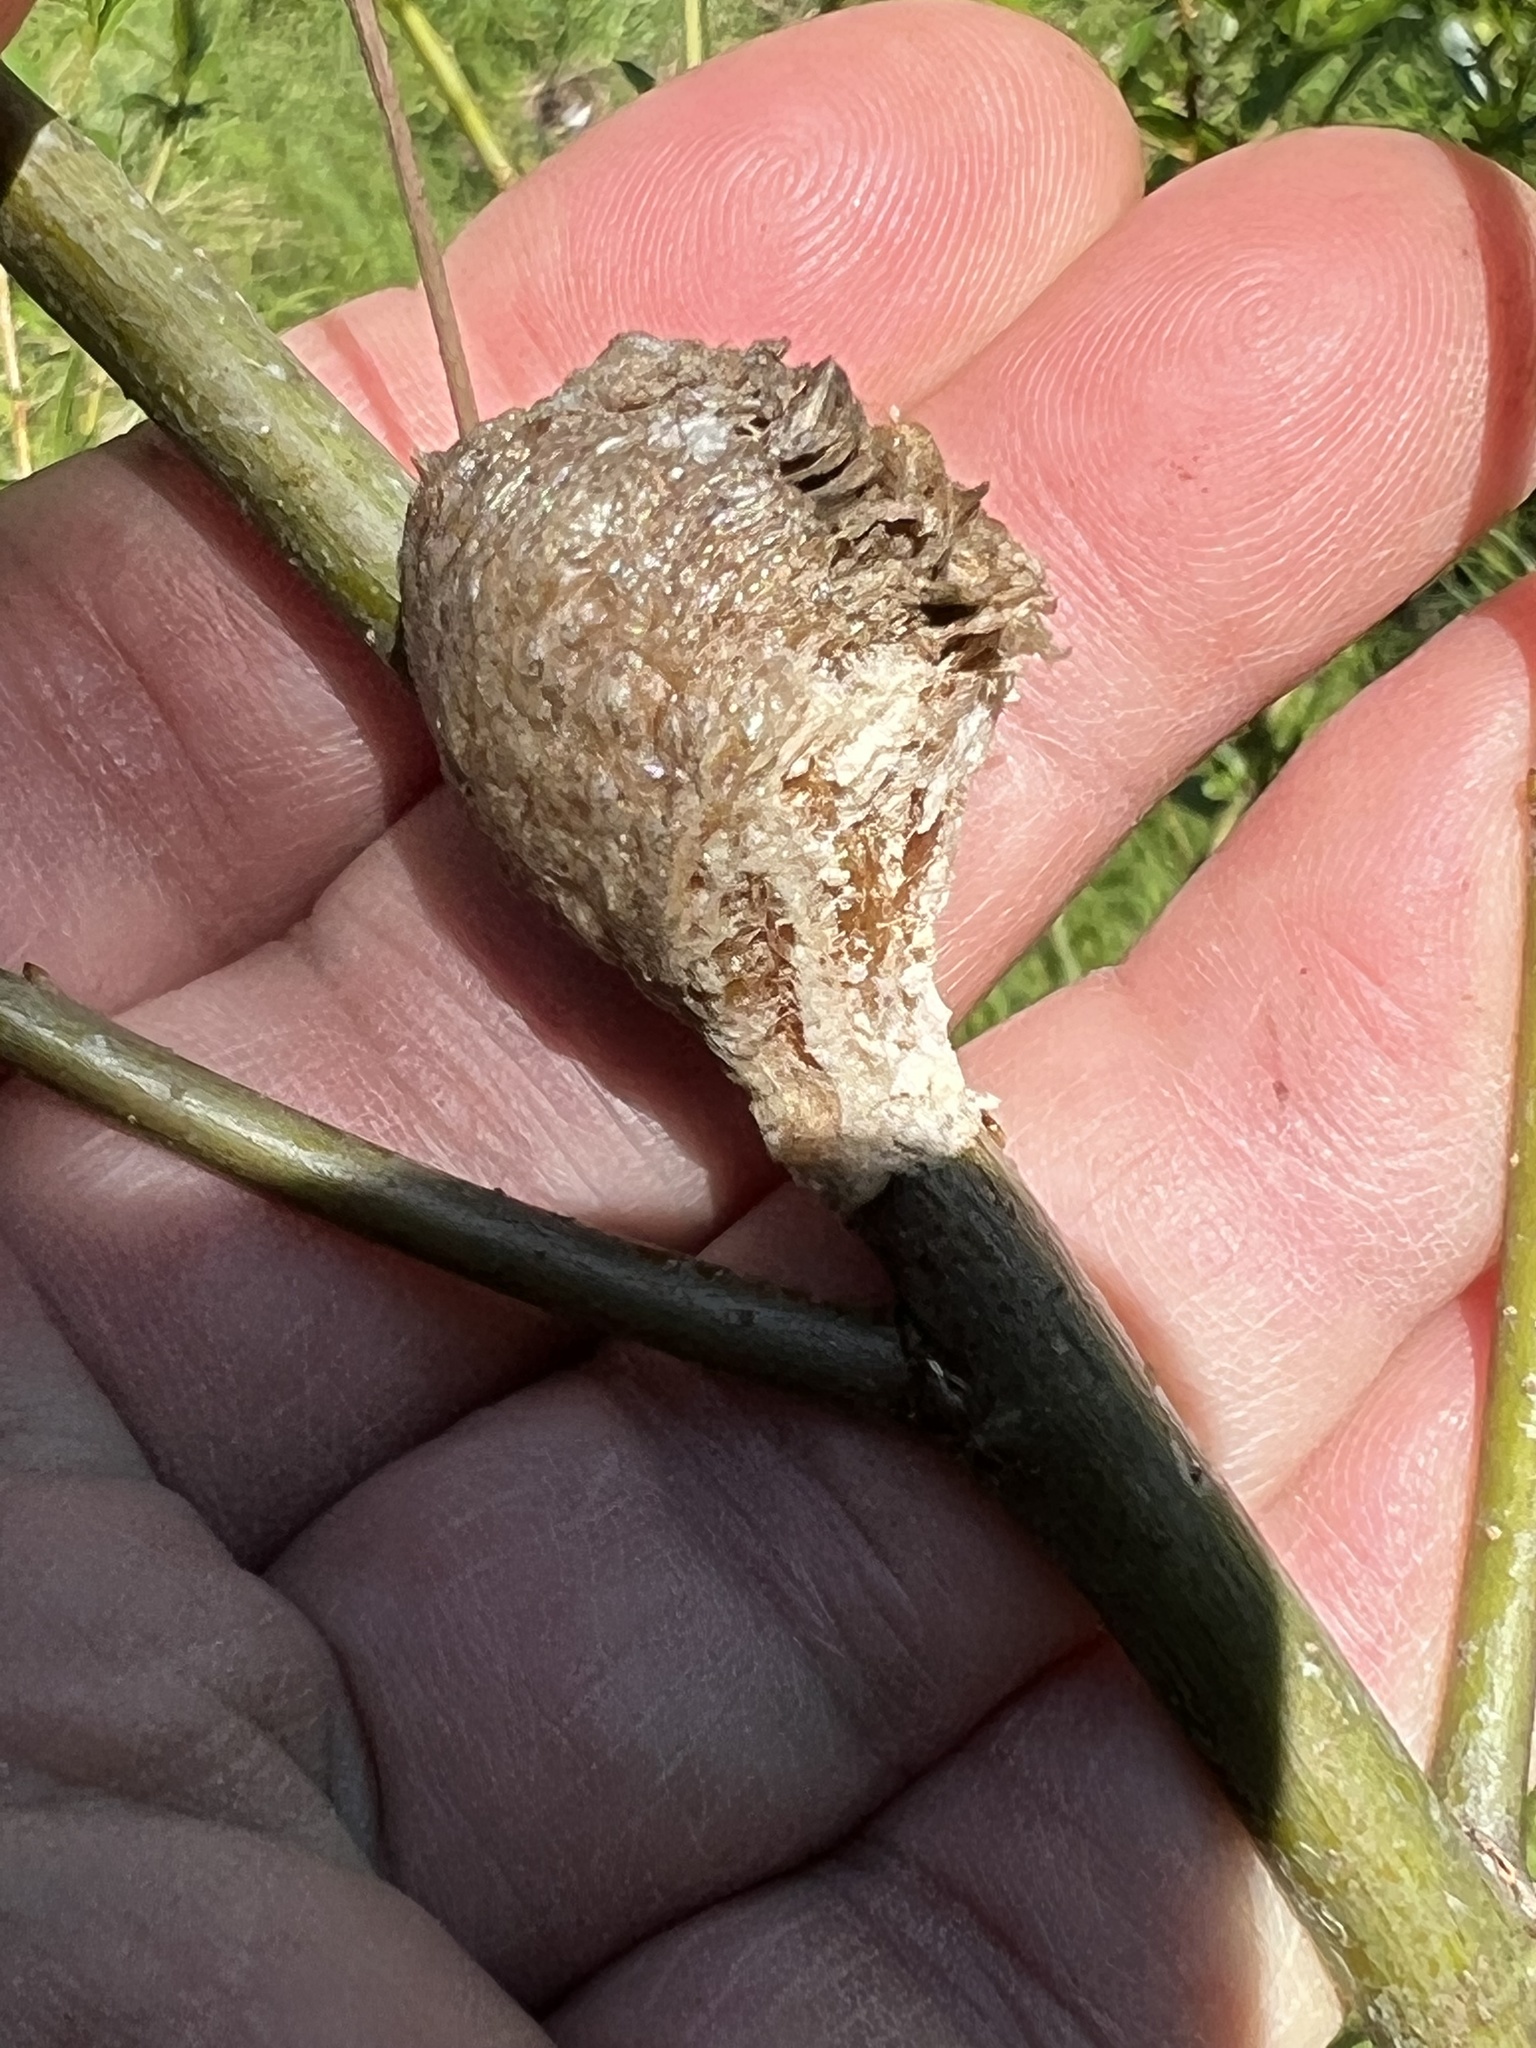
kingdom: Animalia
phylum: Arthropoda
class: Insecta
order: Mantodea
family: Mantidae
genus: Tenodera
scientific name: Tenodera sinensis
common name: Chinese mantis
